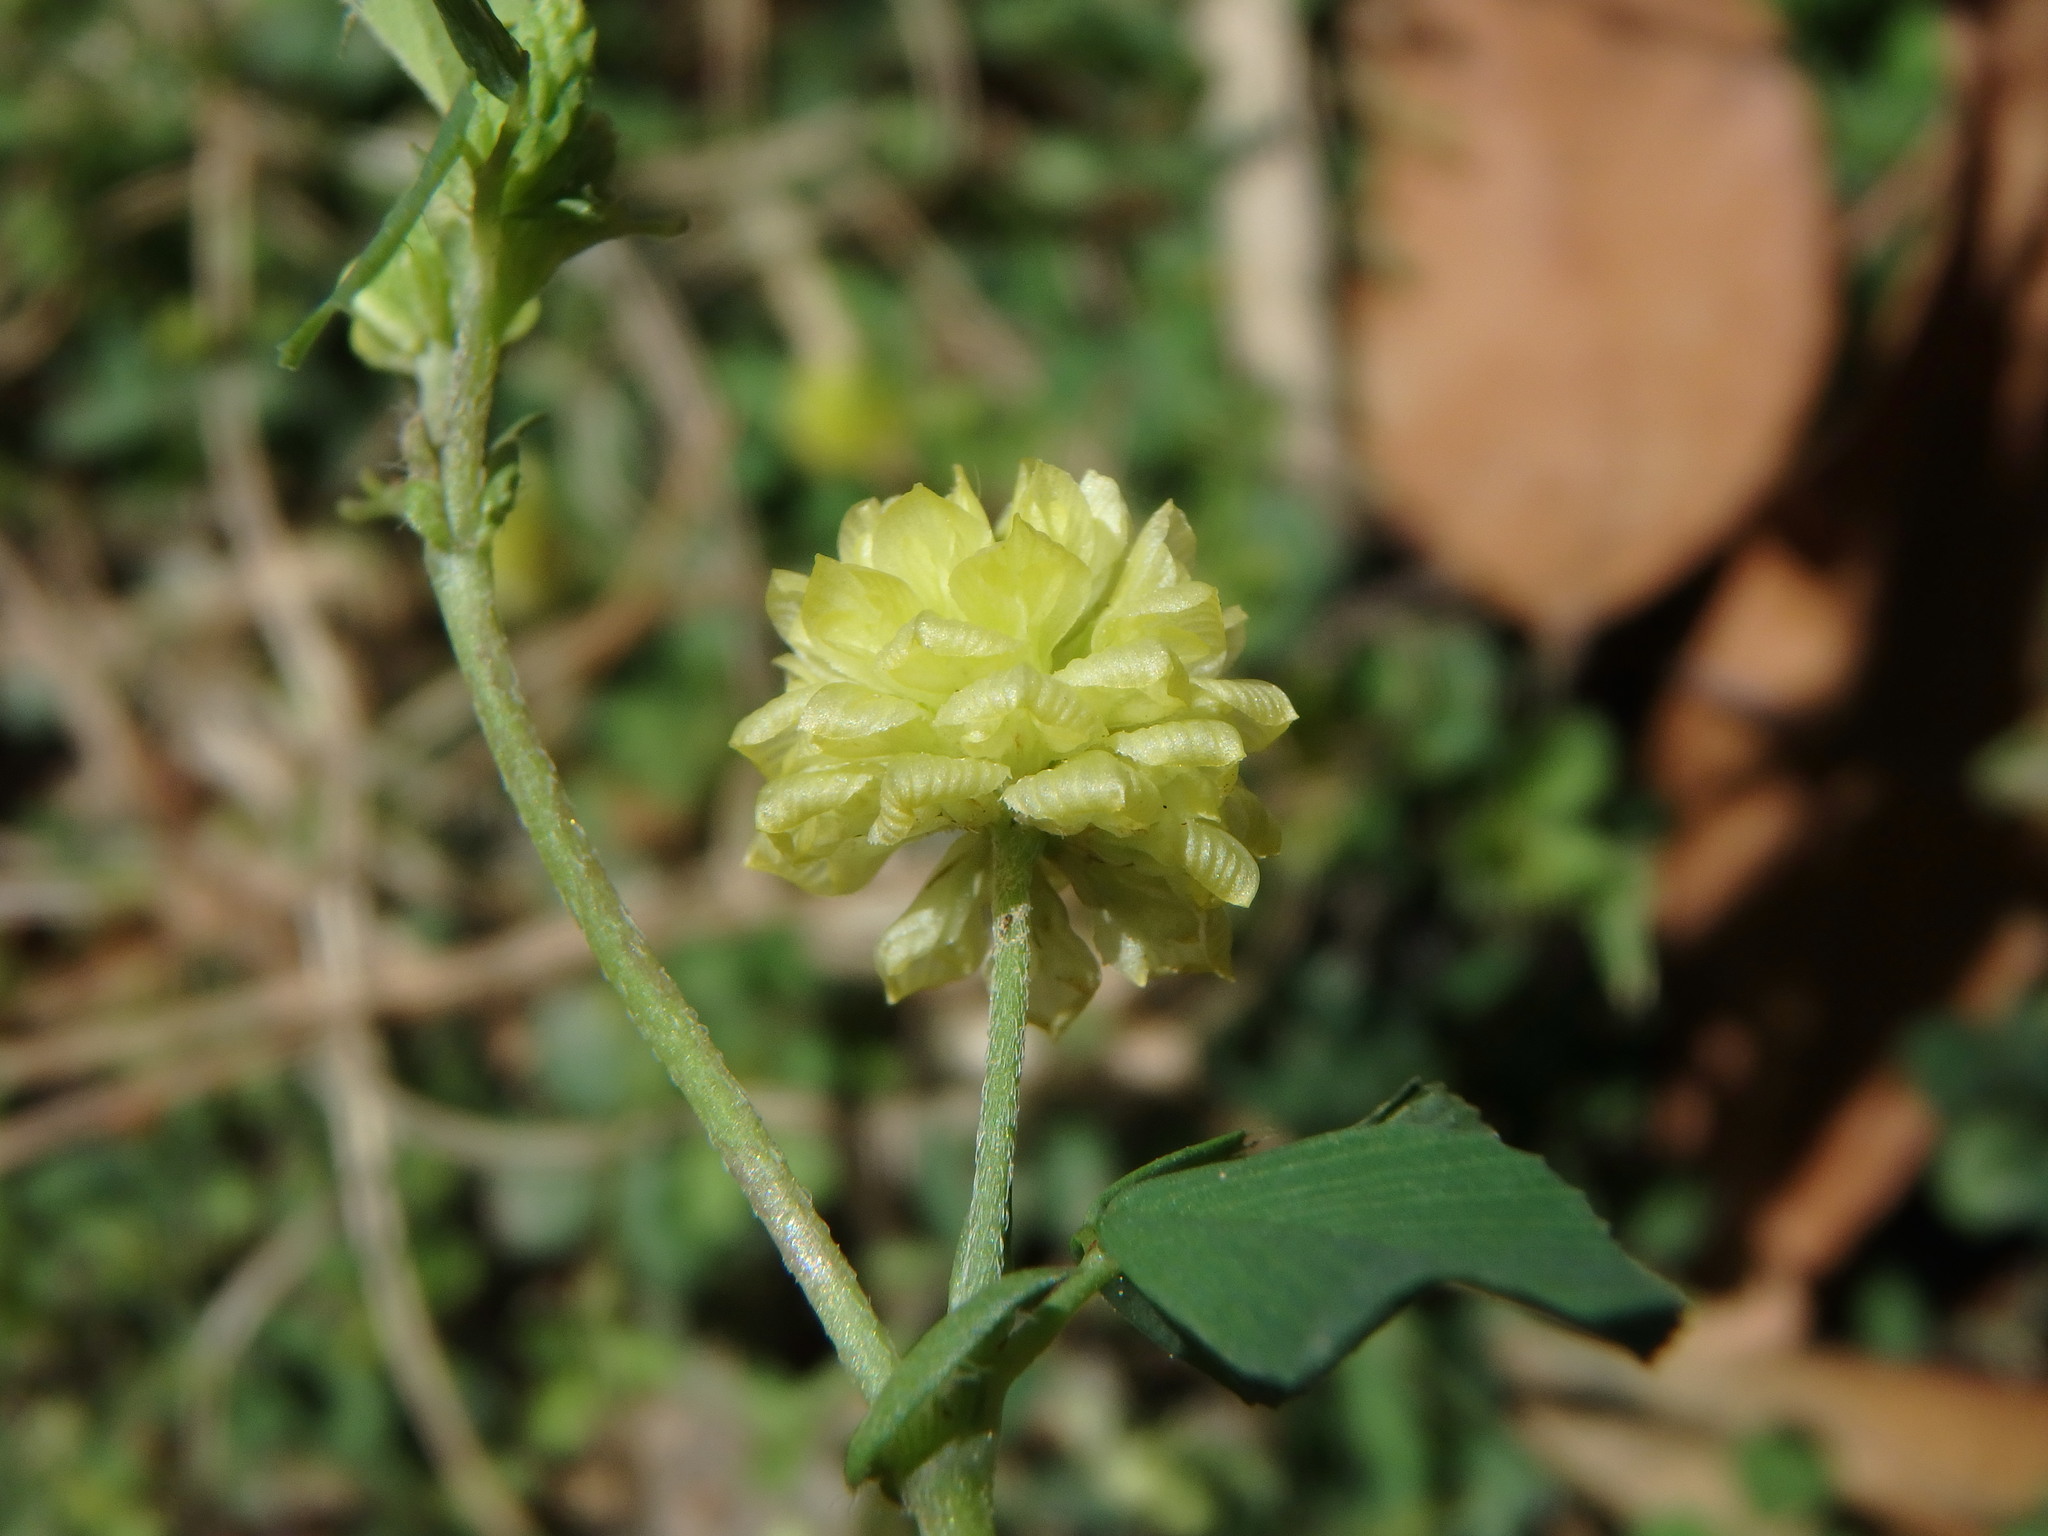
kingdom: Plantae
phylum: Tracheophyta
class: Magnoliopsida
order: Fabales
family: Fabaceae
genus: Trifolium
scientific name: Trifolium campestre
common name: Field clover
